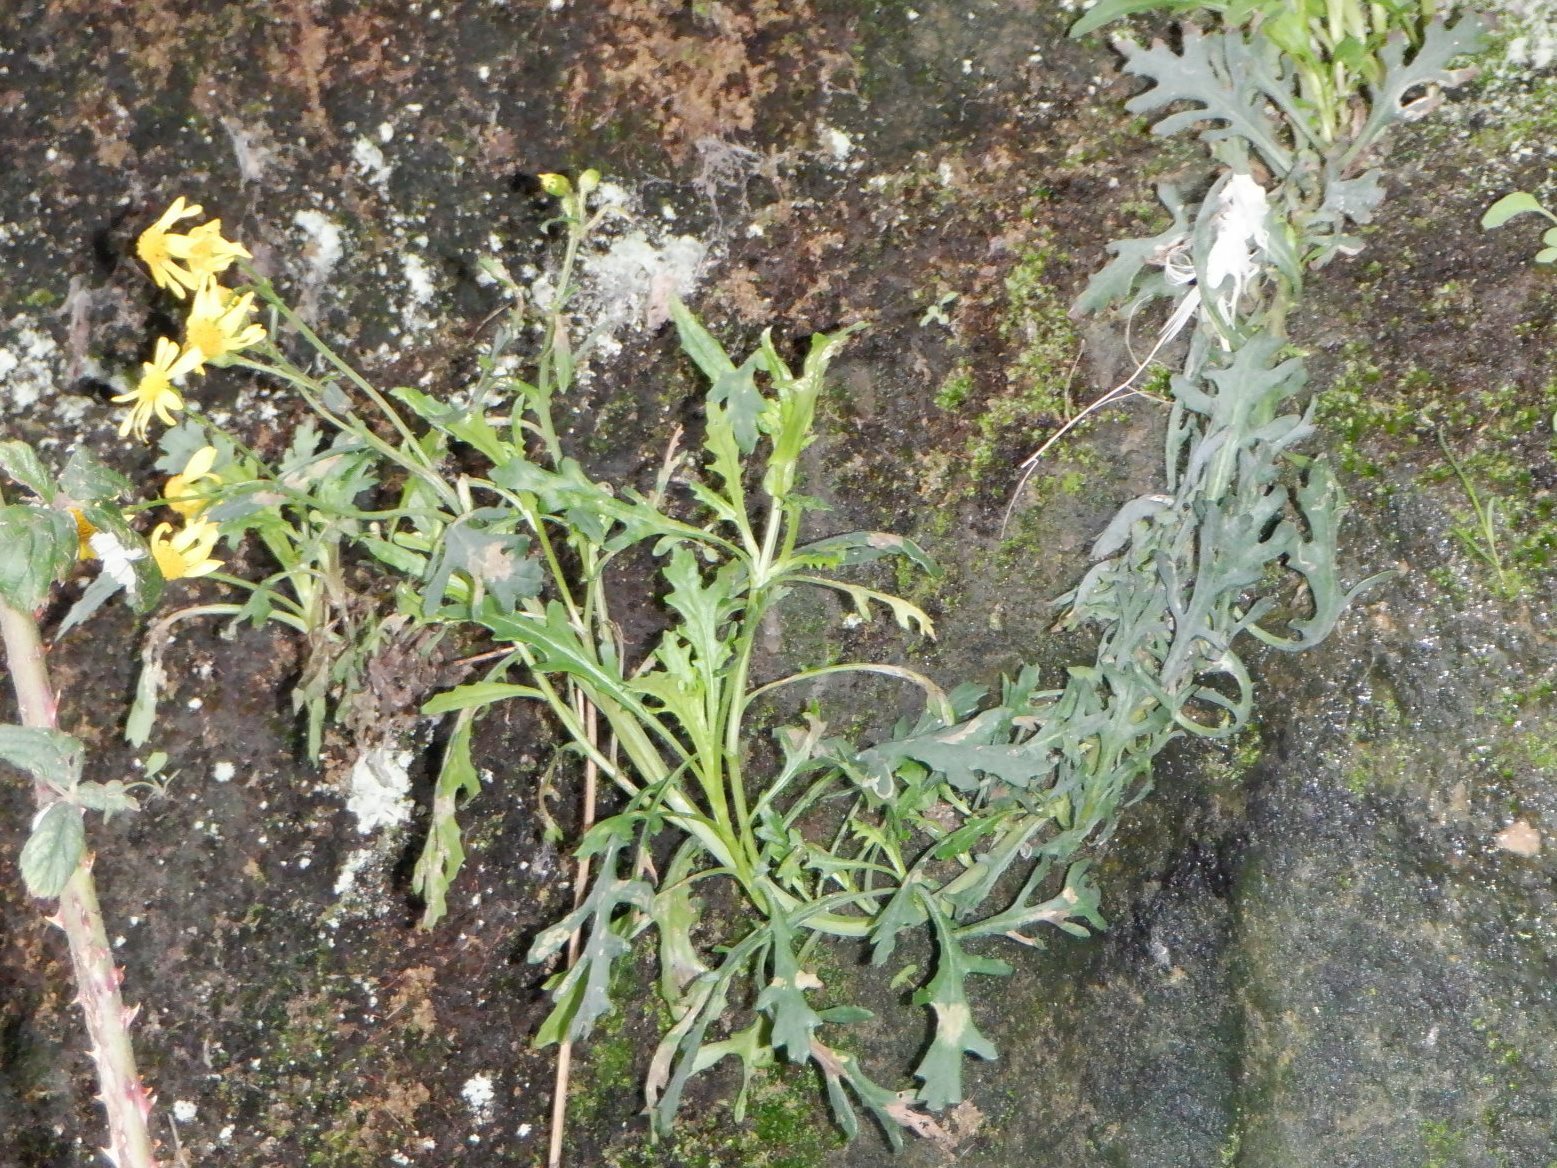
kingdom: Plantae
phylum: Tracheophyta
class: Magnoliopsida
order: Asterales
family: Asteraceae
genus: Senecio
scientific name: Senecio squalidus
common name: Oxford ragwort
